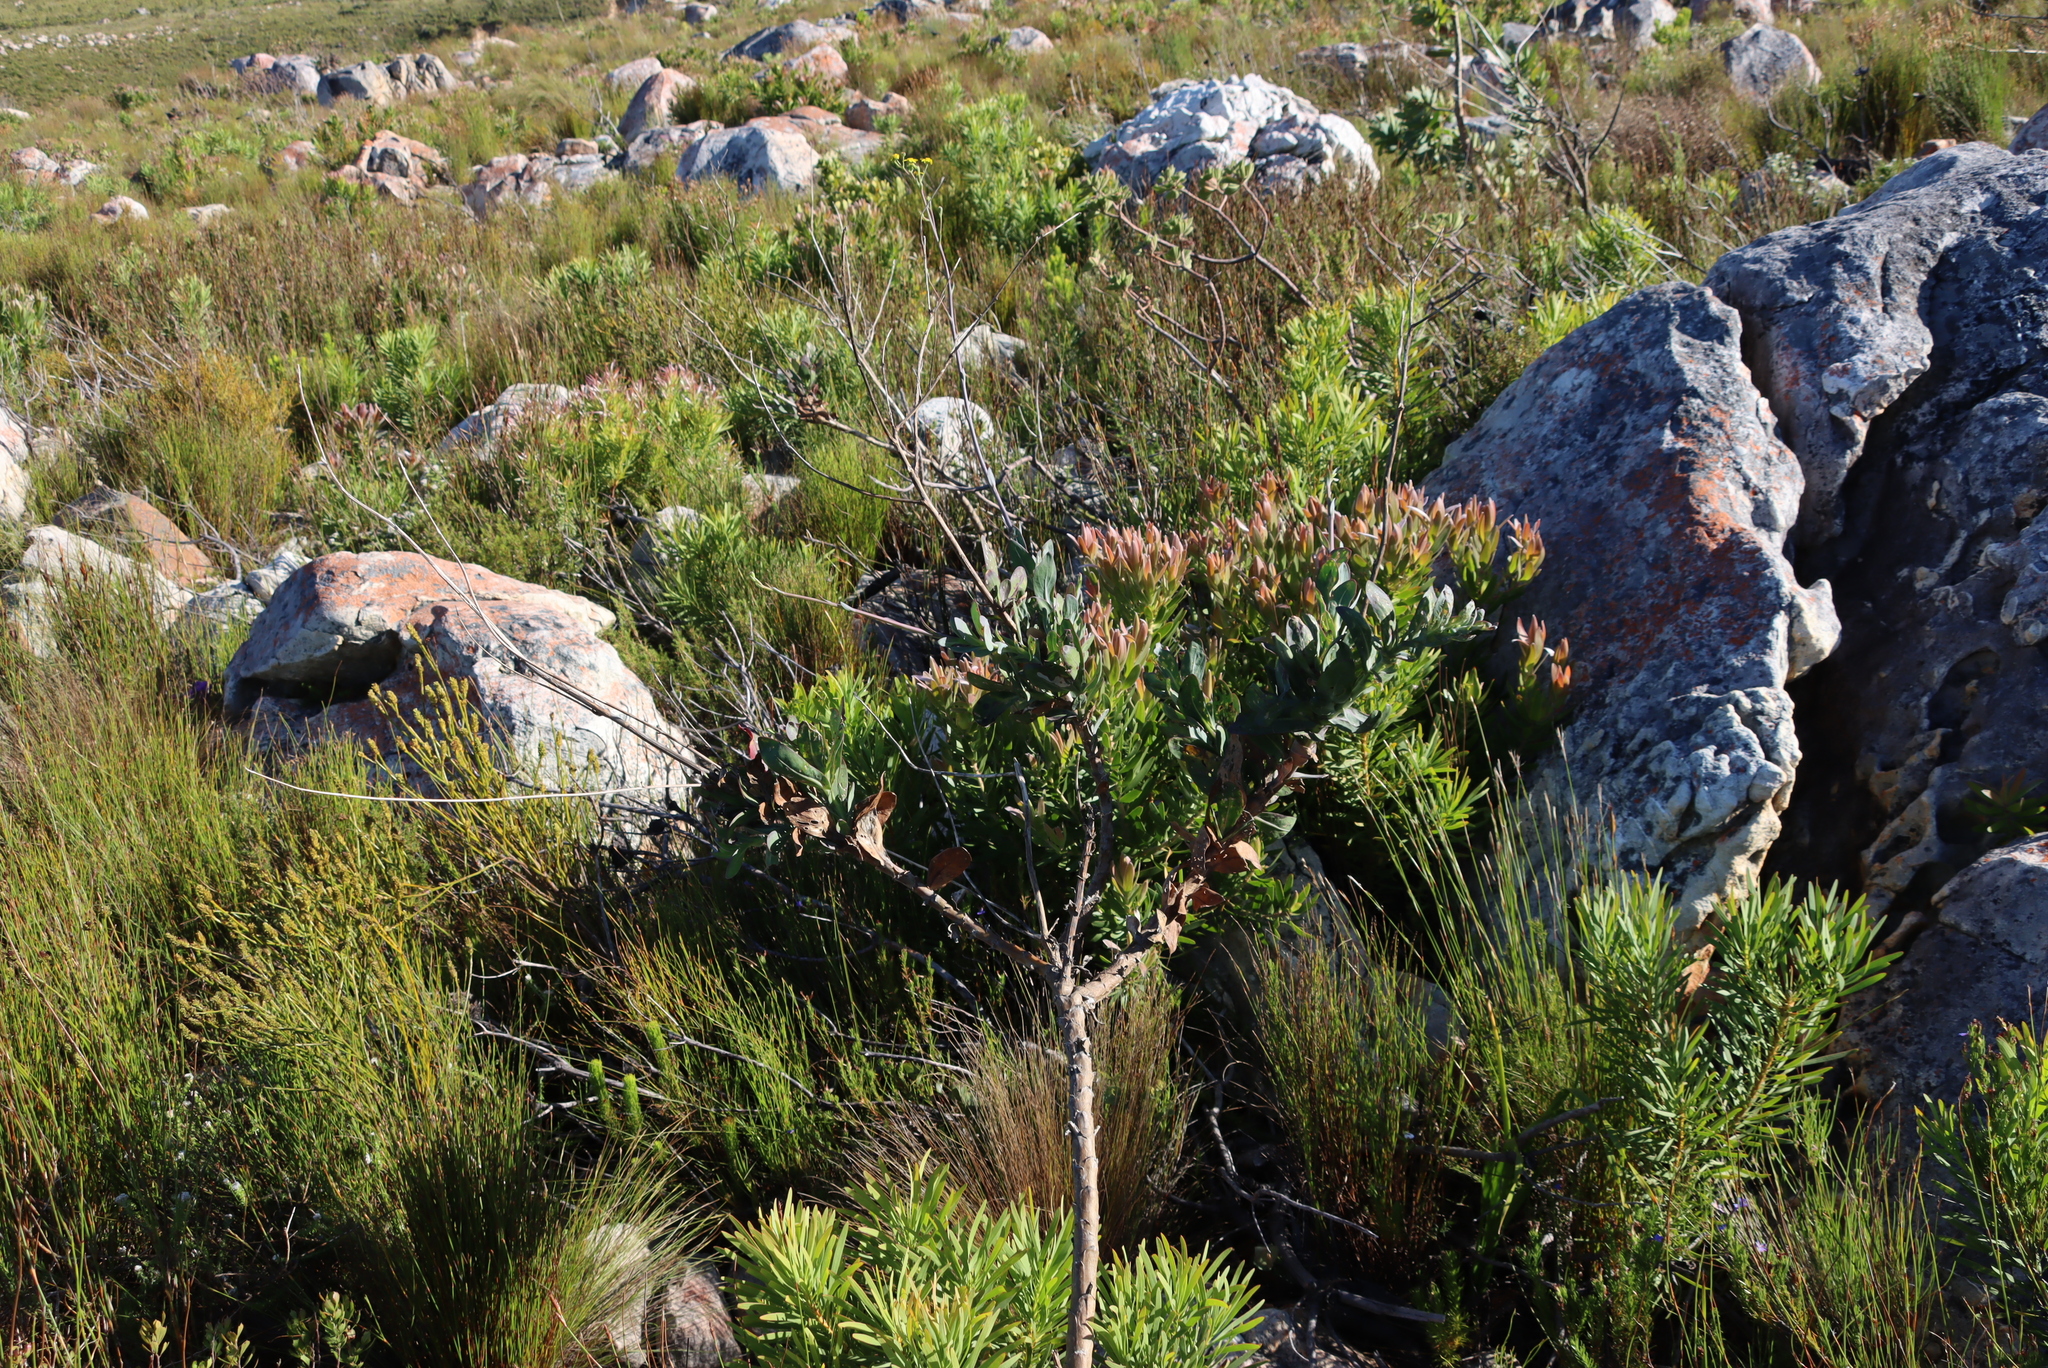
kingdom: Plantae
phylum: Tracheophyta
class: Magnoliopsida
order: Asterales
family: Asteraceae
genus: Othonna
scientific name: Othonna quinquedentata
